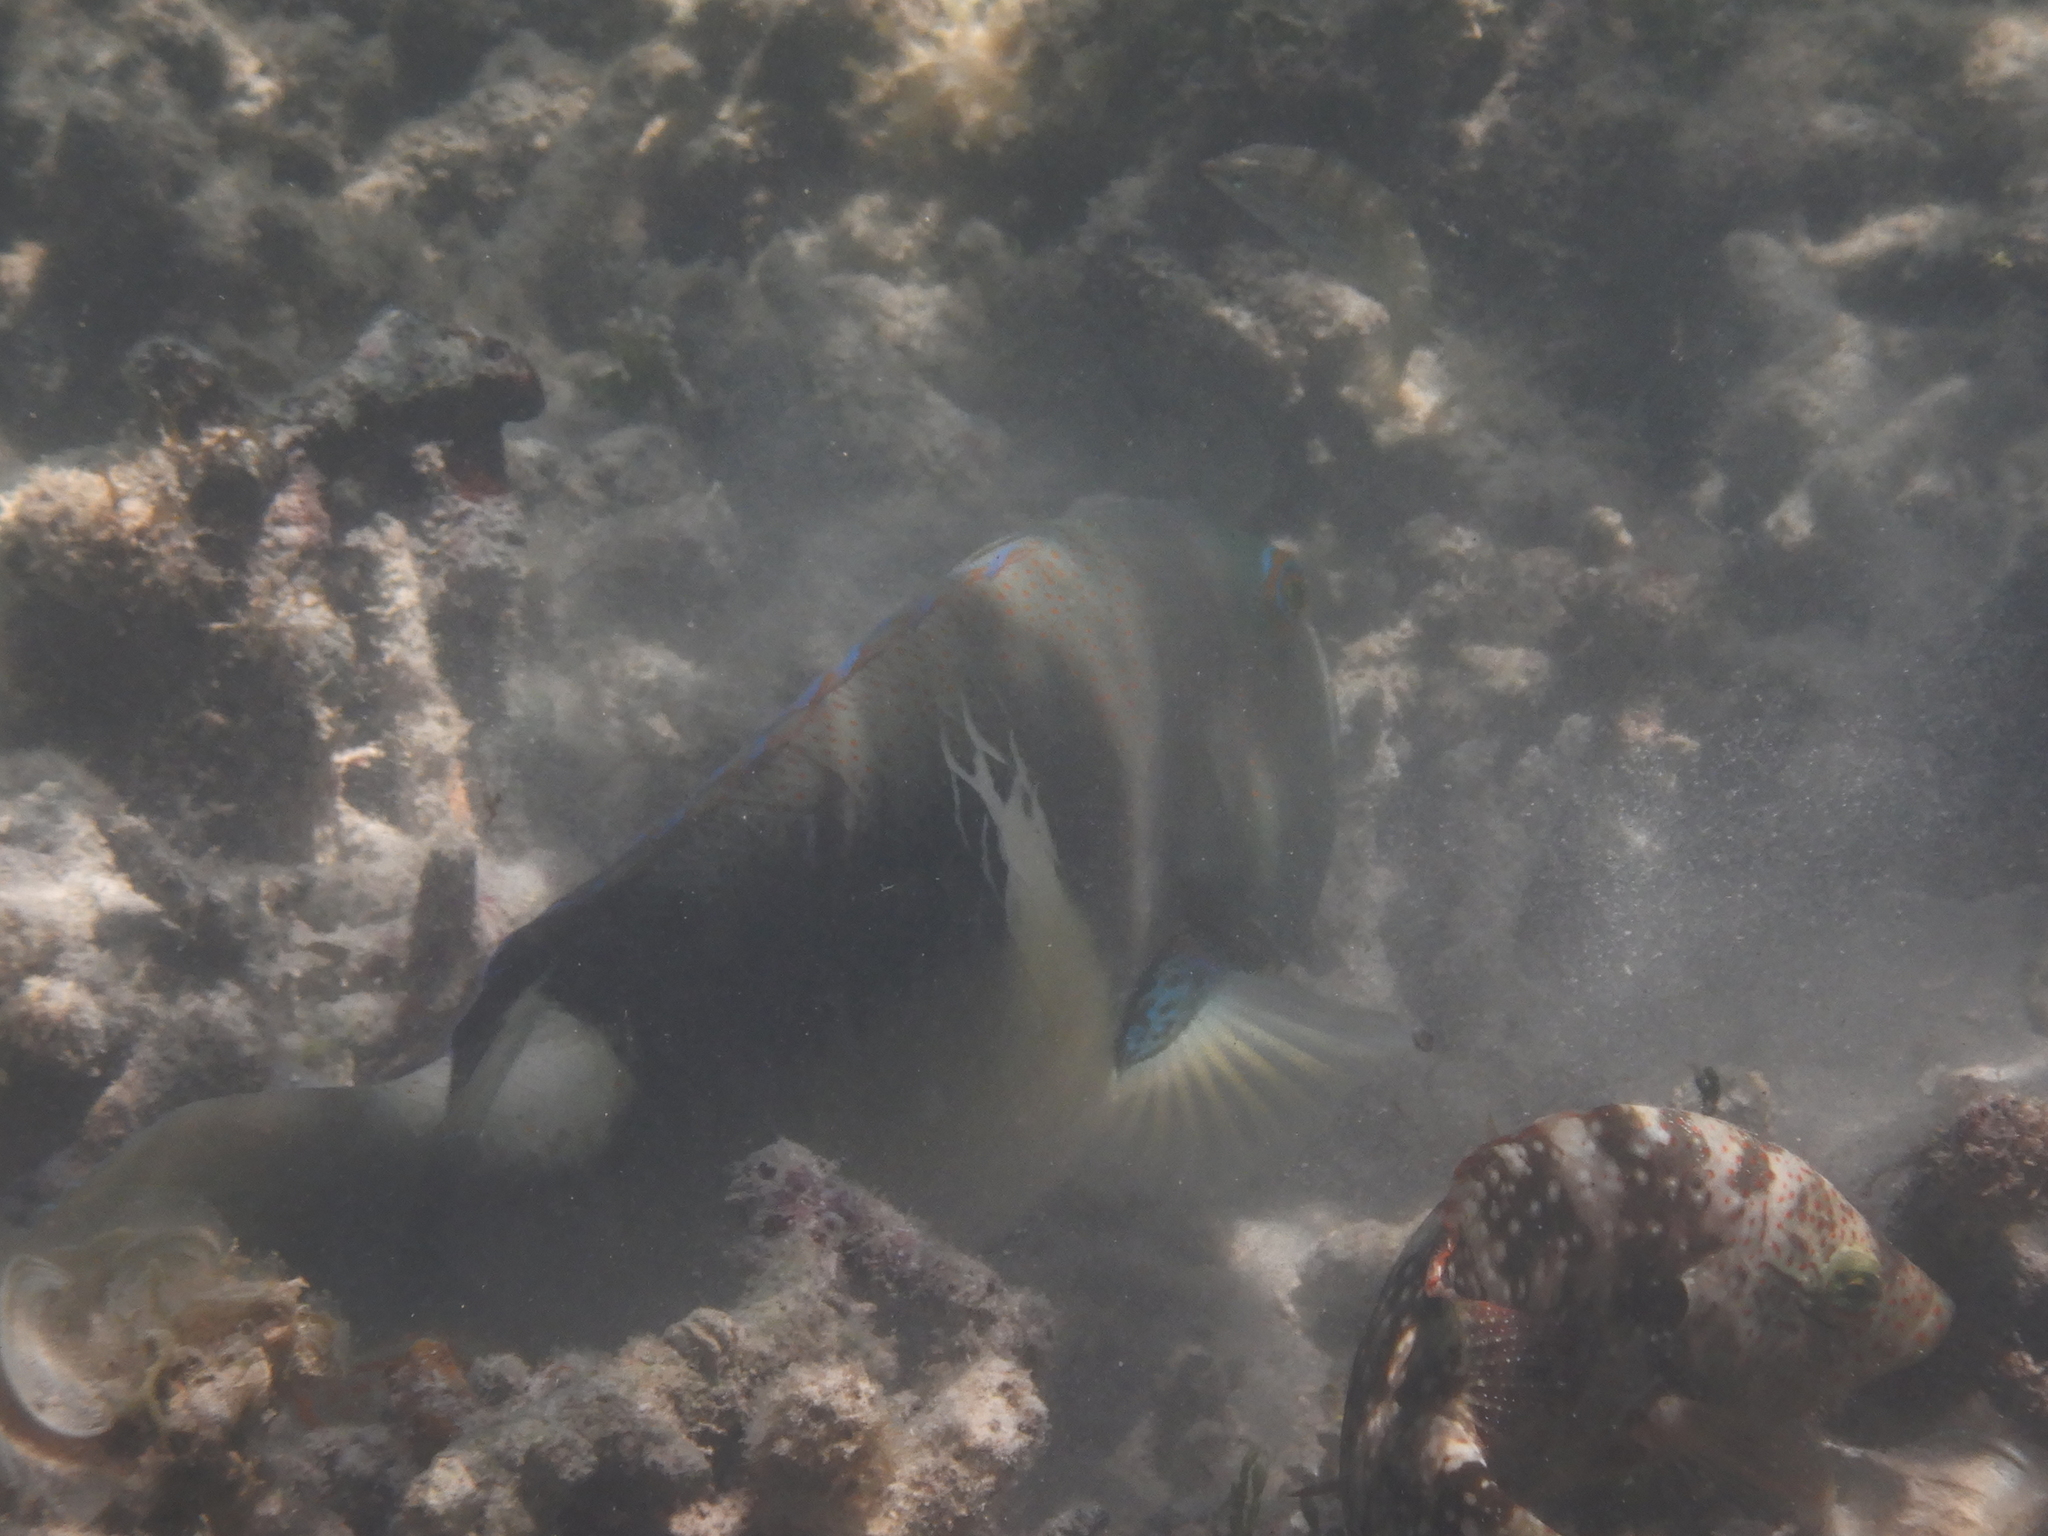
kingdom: Animalia
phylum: Chordata
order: Perciformes
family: Labridae
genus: Choerodon
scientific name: Choerodon anchorago
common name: Anchor tuskfish
